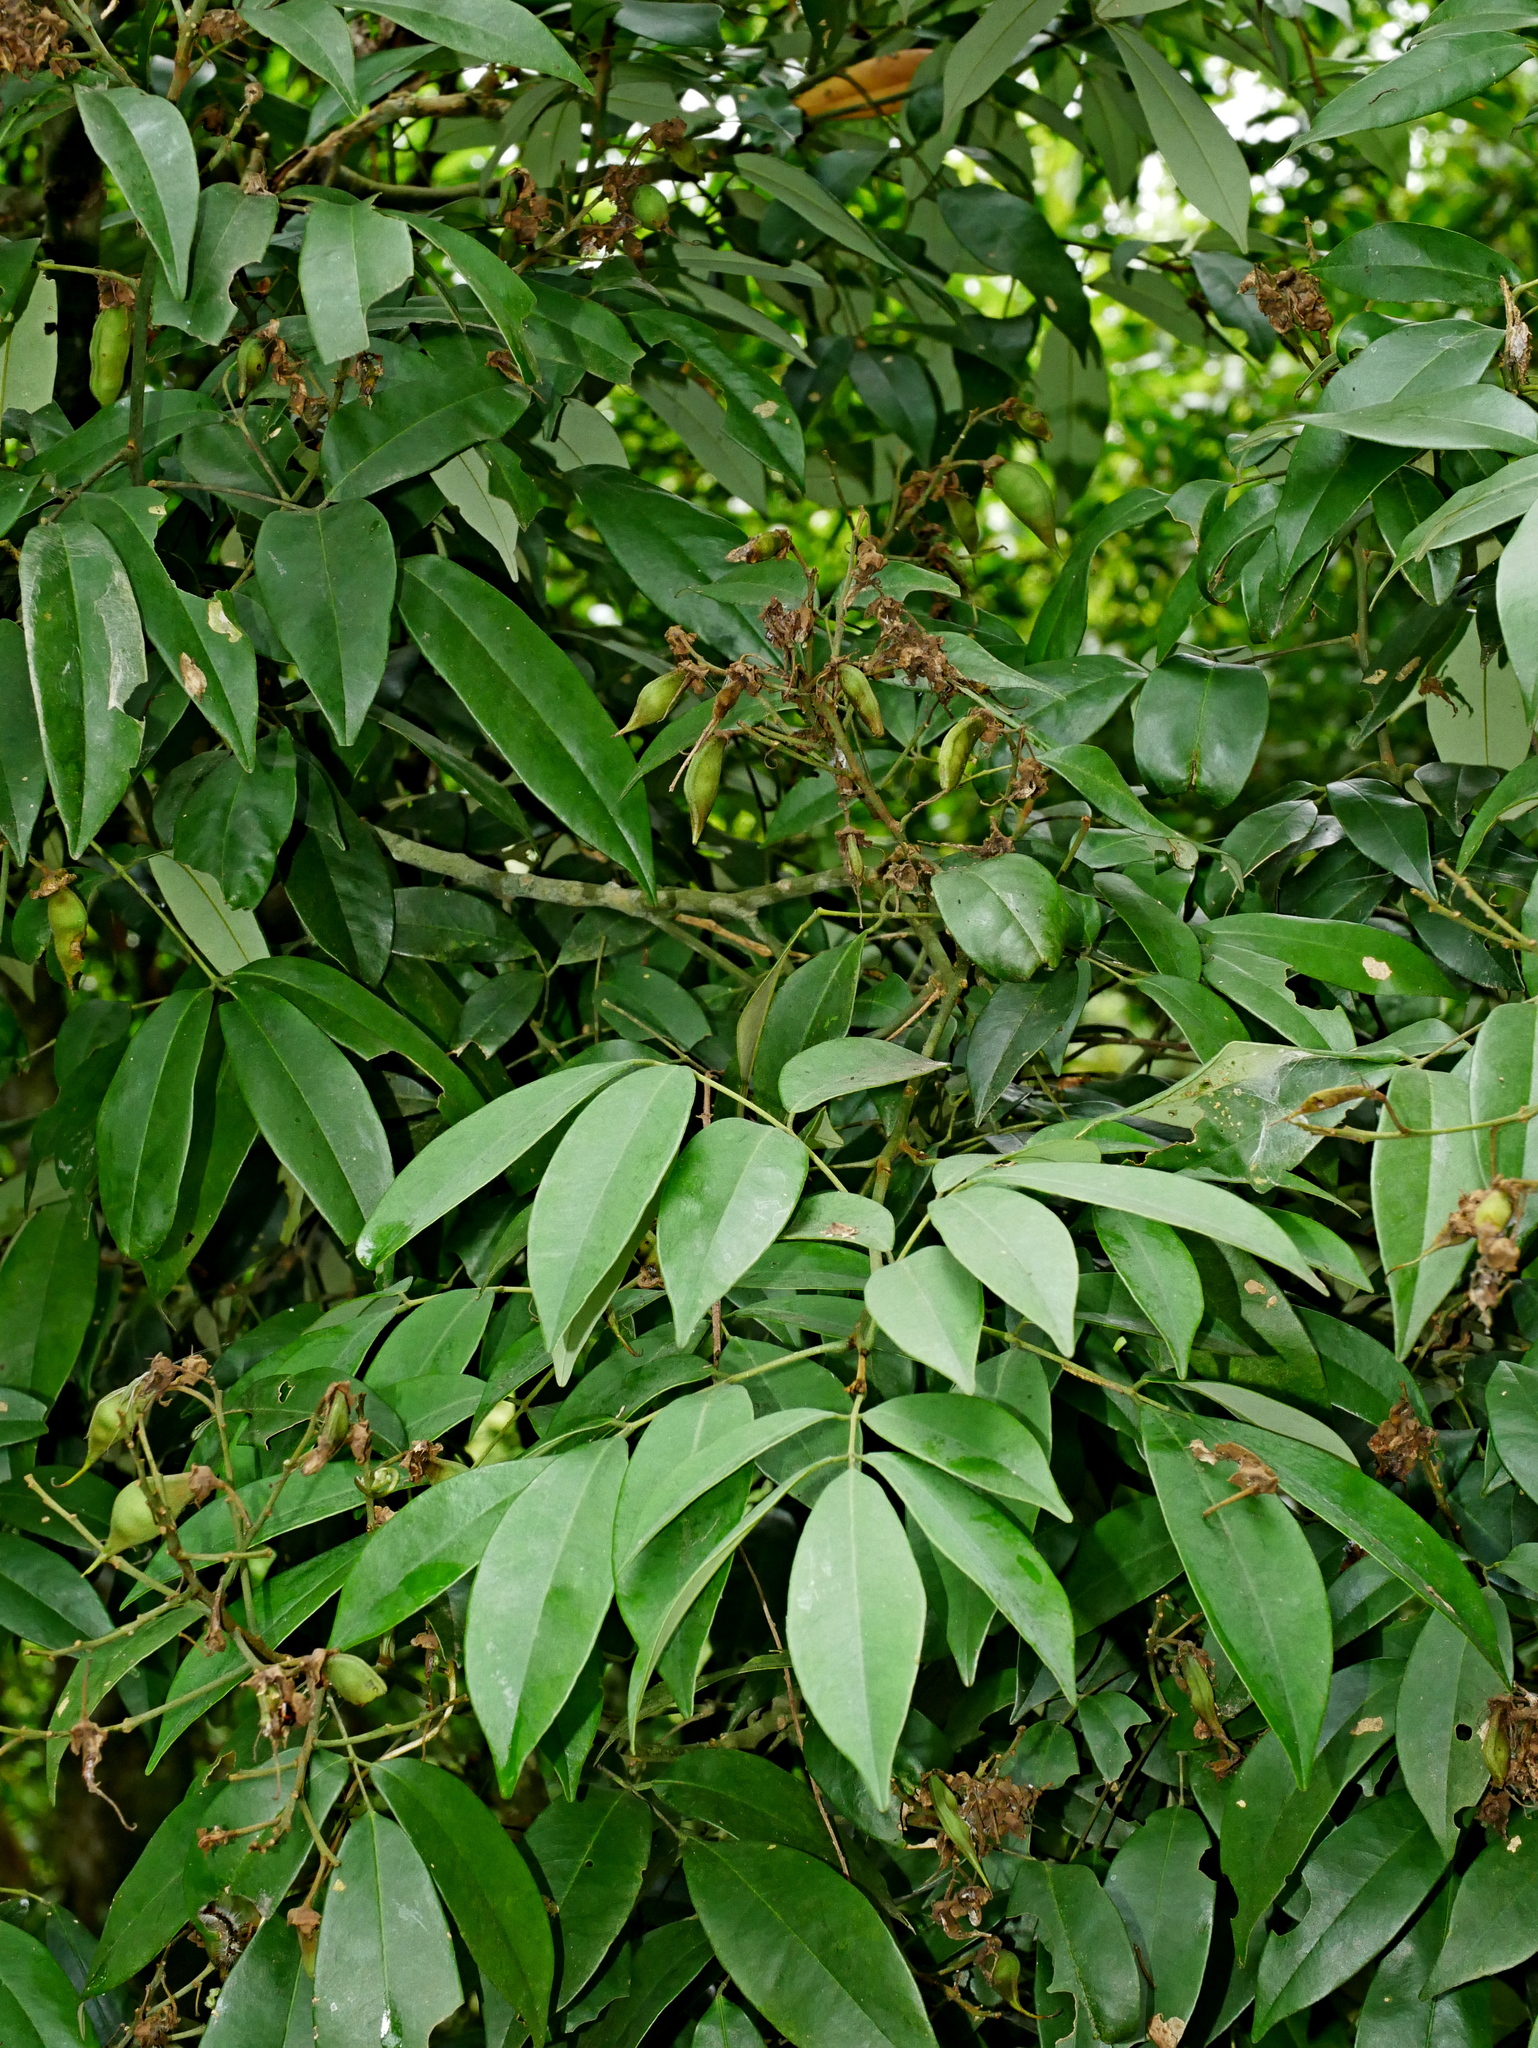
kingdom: Plantae
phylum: Tracheophyta
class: Magnoliopsida
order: Fabales
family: Fabaceae
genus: Ormosia
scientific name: Ormosia formosana
